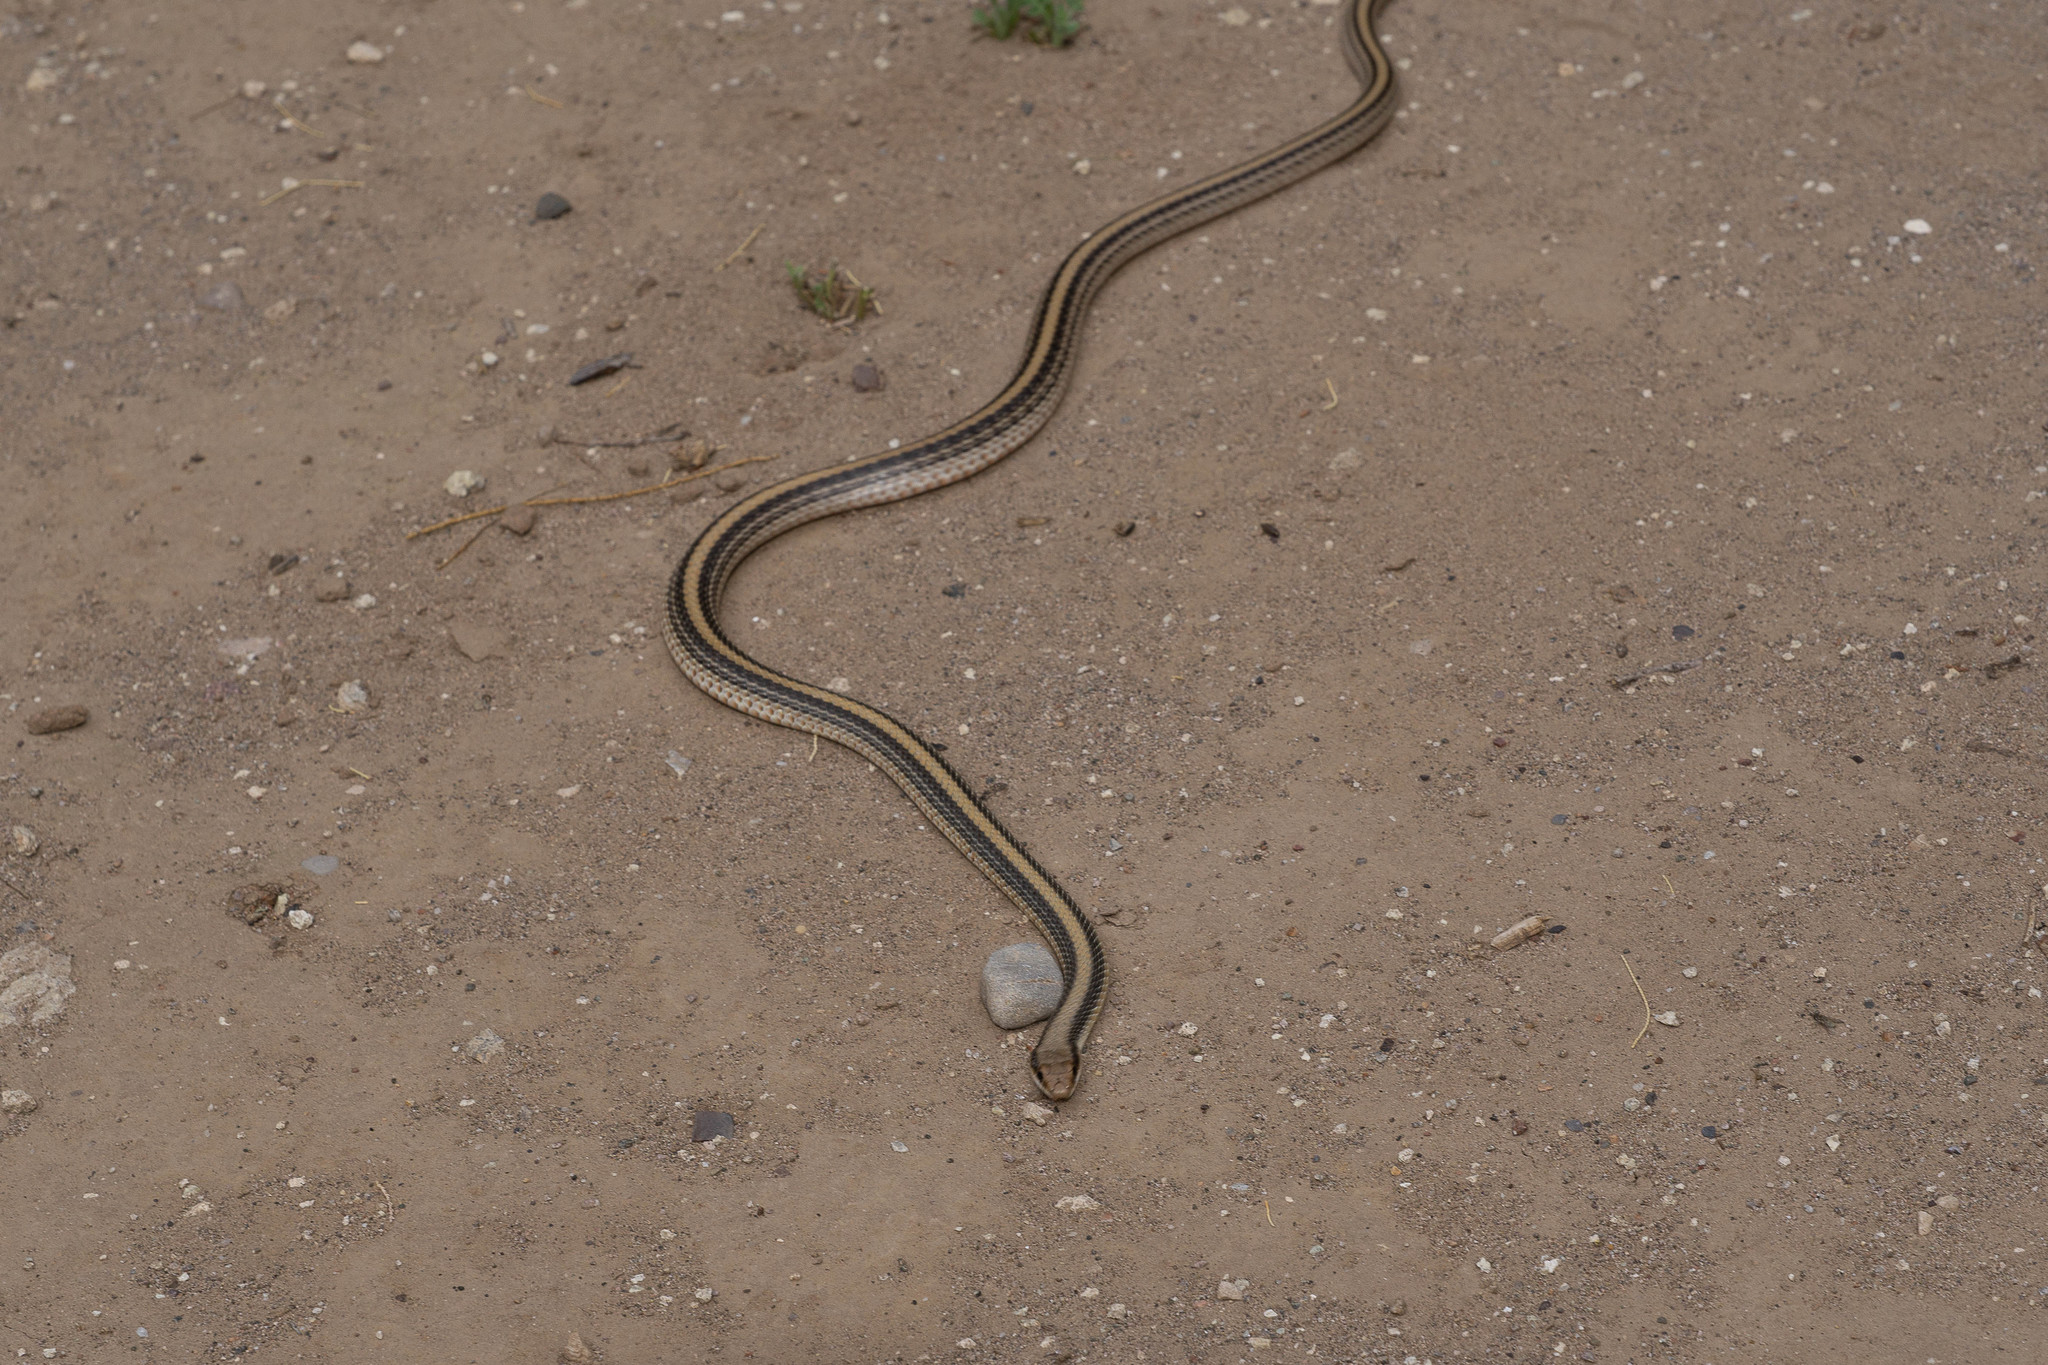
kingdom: Animalia
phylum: Chordata
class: Squamata
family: Colubridae
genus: Salvadora
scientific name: Salvadora hexalepis
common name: Western patchnose snake
